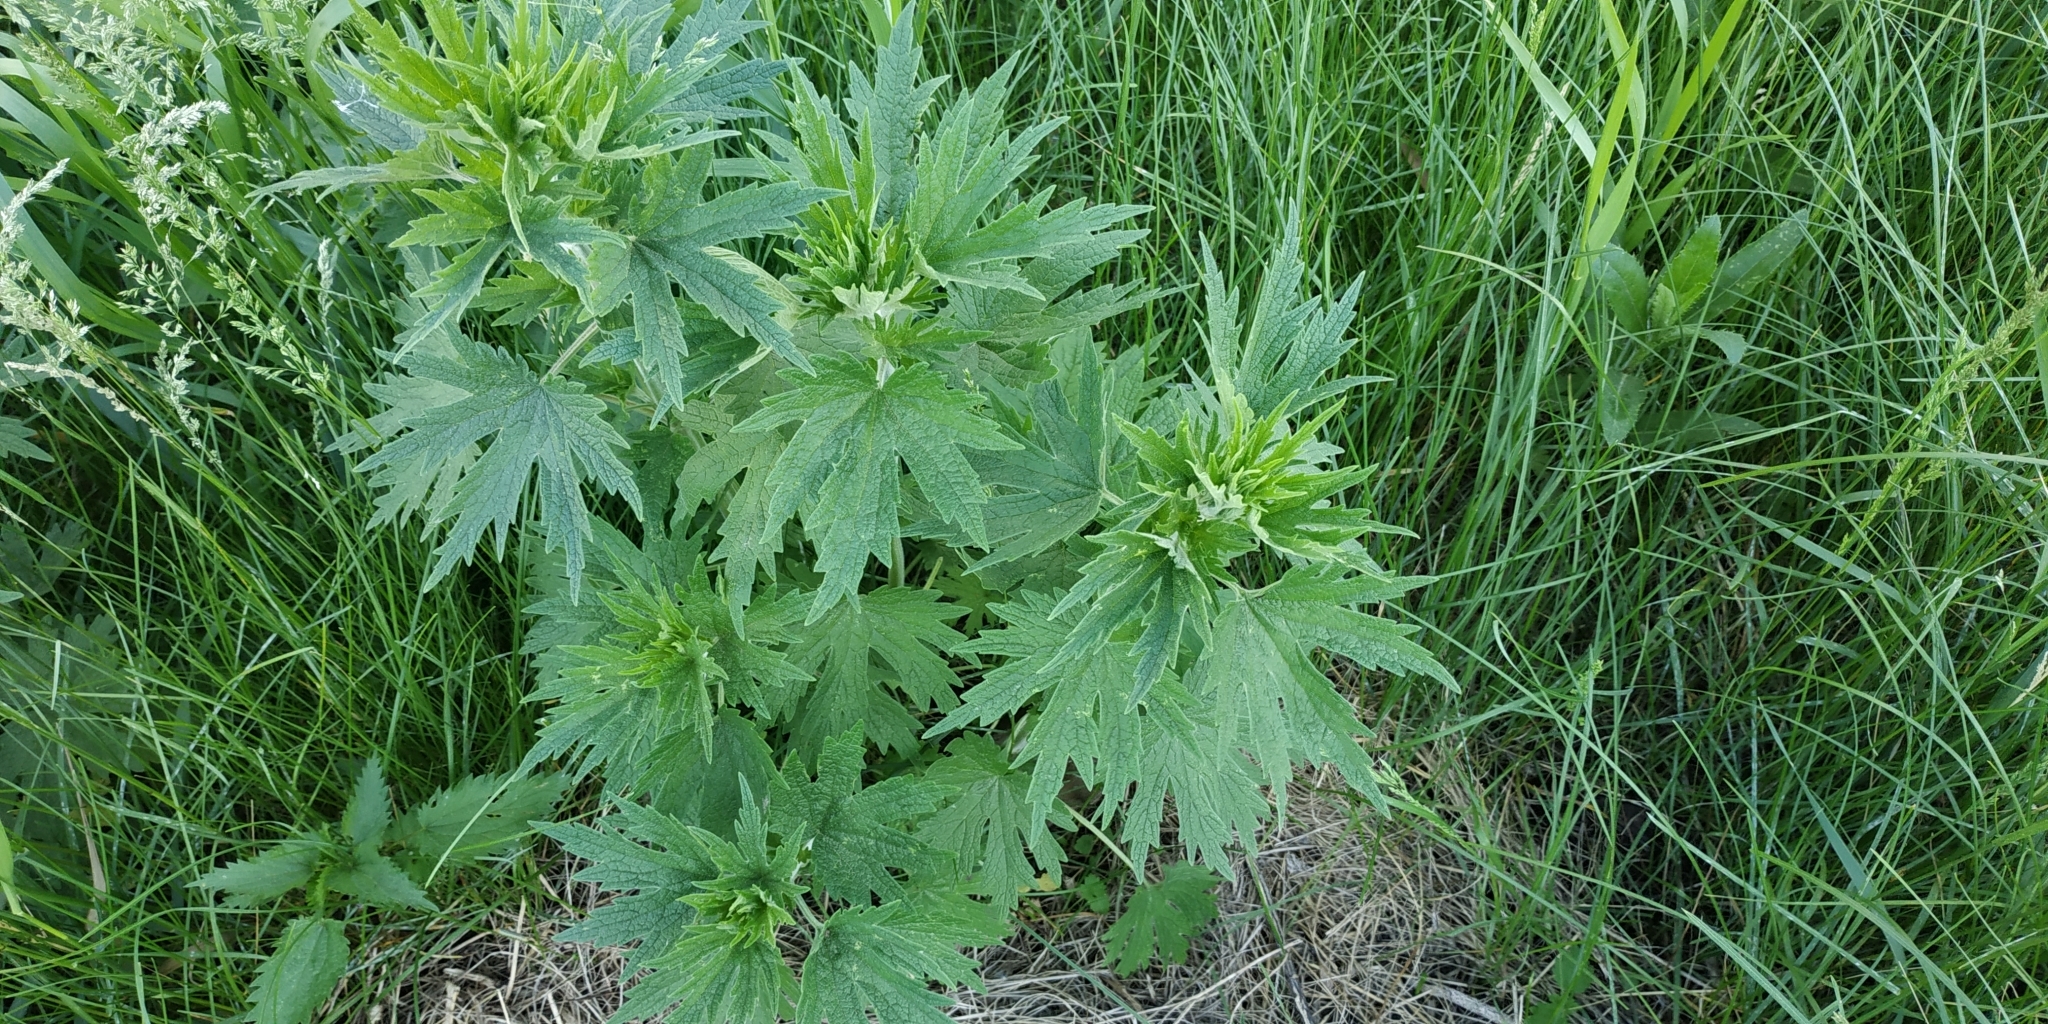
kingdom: Plantae
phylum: Tracheophyta
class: Magnoliopsida
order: Lamiales
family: Lamiaceae
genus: Leonurus
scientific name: Leonurus quinquelobatus
